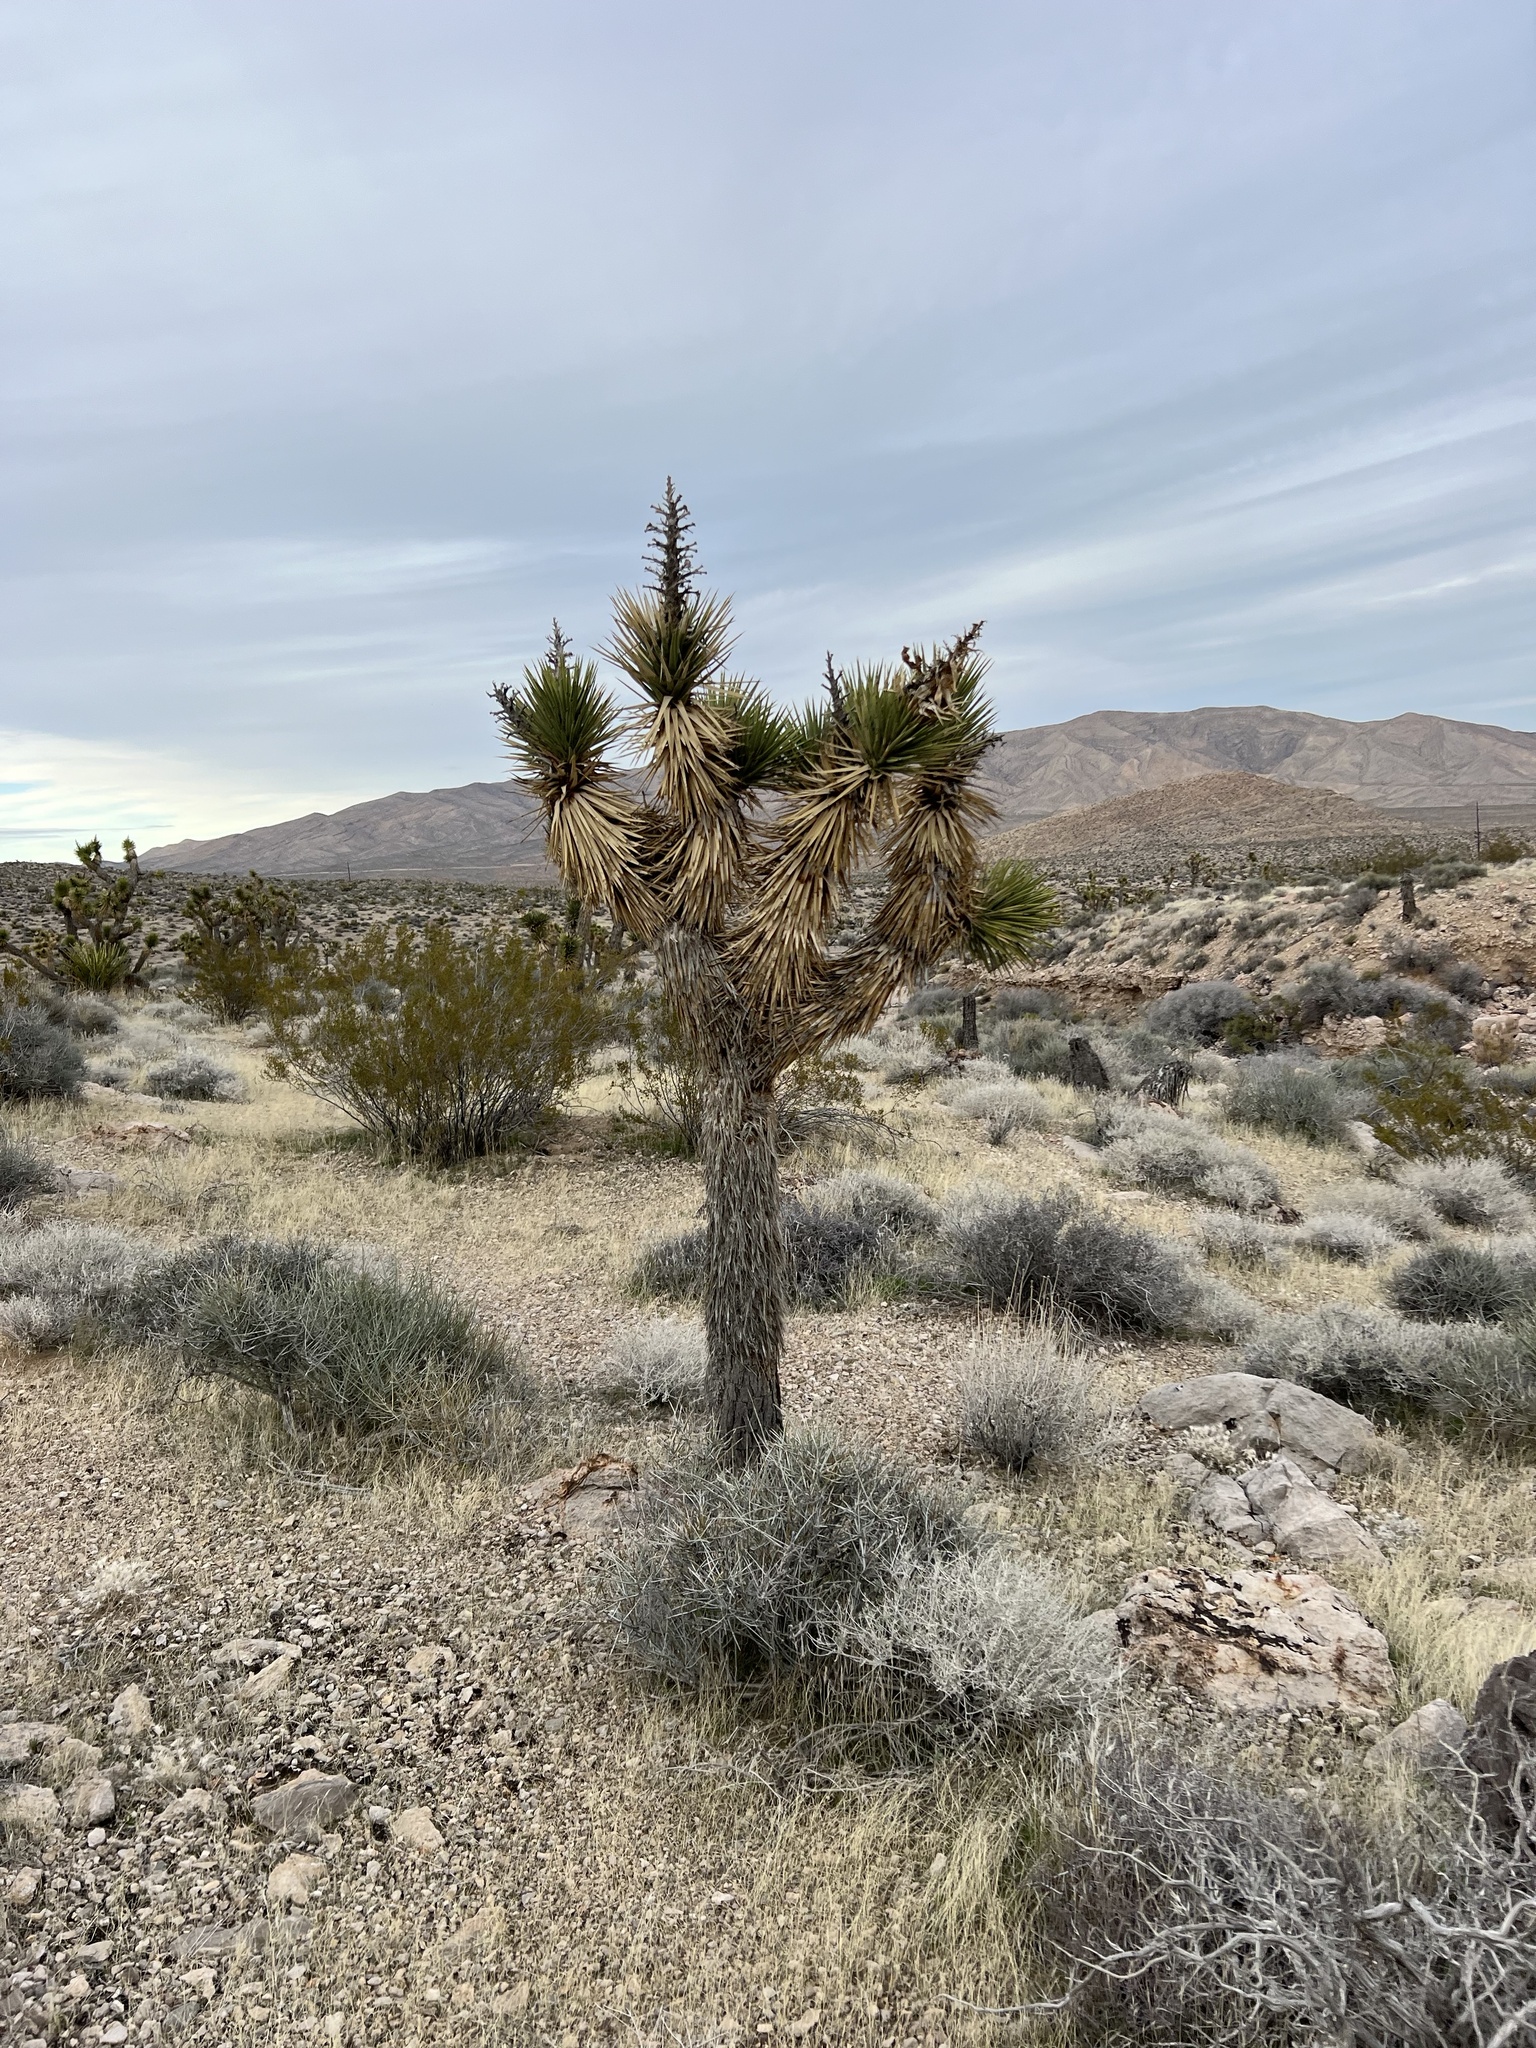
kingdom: Plantae
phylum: Tracheophyta
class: Liliopsida
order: Asparagales
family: Asparagaceae
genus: Yucca
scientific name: Yucca brevifolia
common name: Joshua tree
